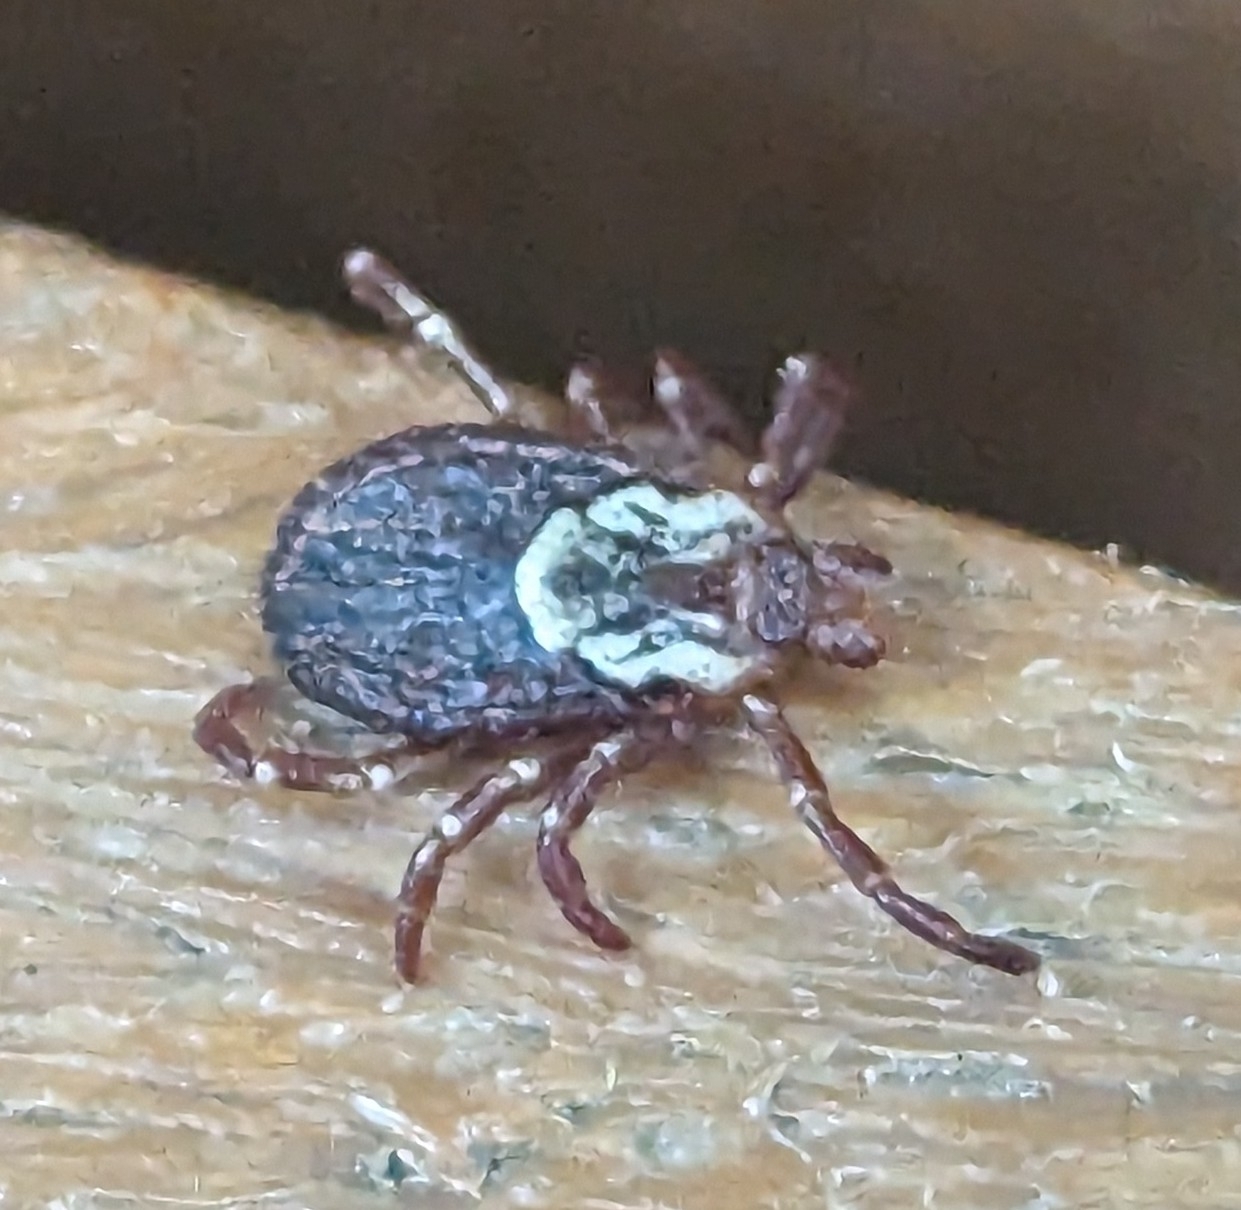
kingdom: Animalia
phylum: Arthropoda
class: Arachnida
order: Ixodida
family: Ixodidae
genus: Dermacentor
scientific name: Dermacentor variabilis
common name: American dog tick
